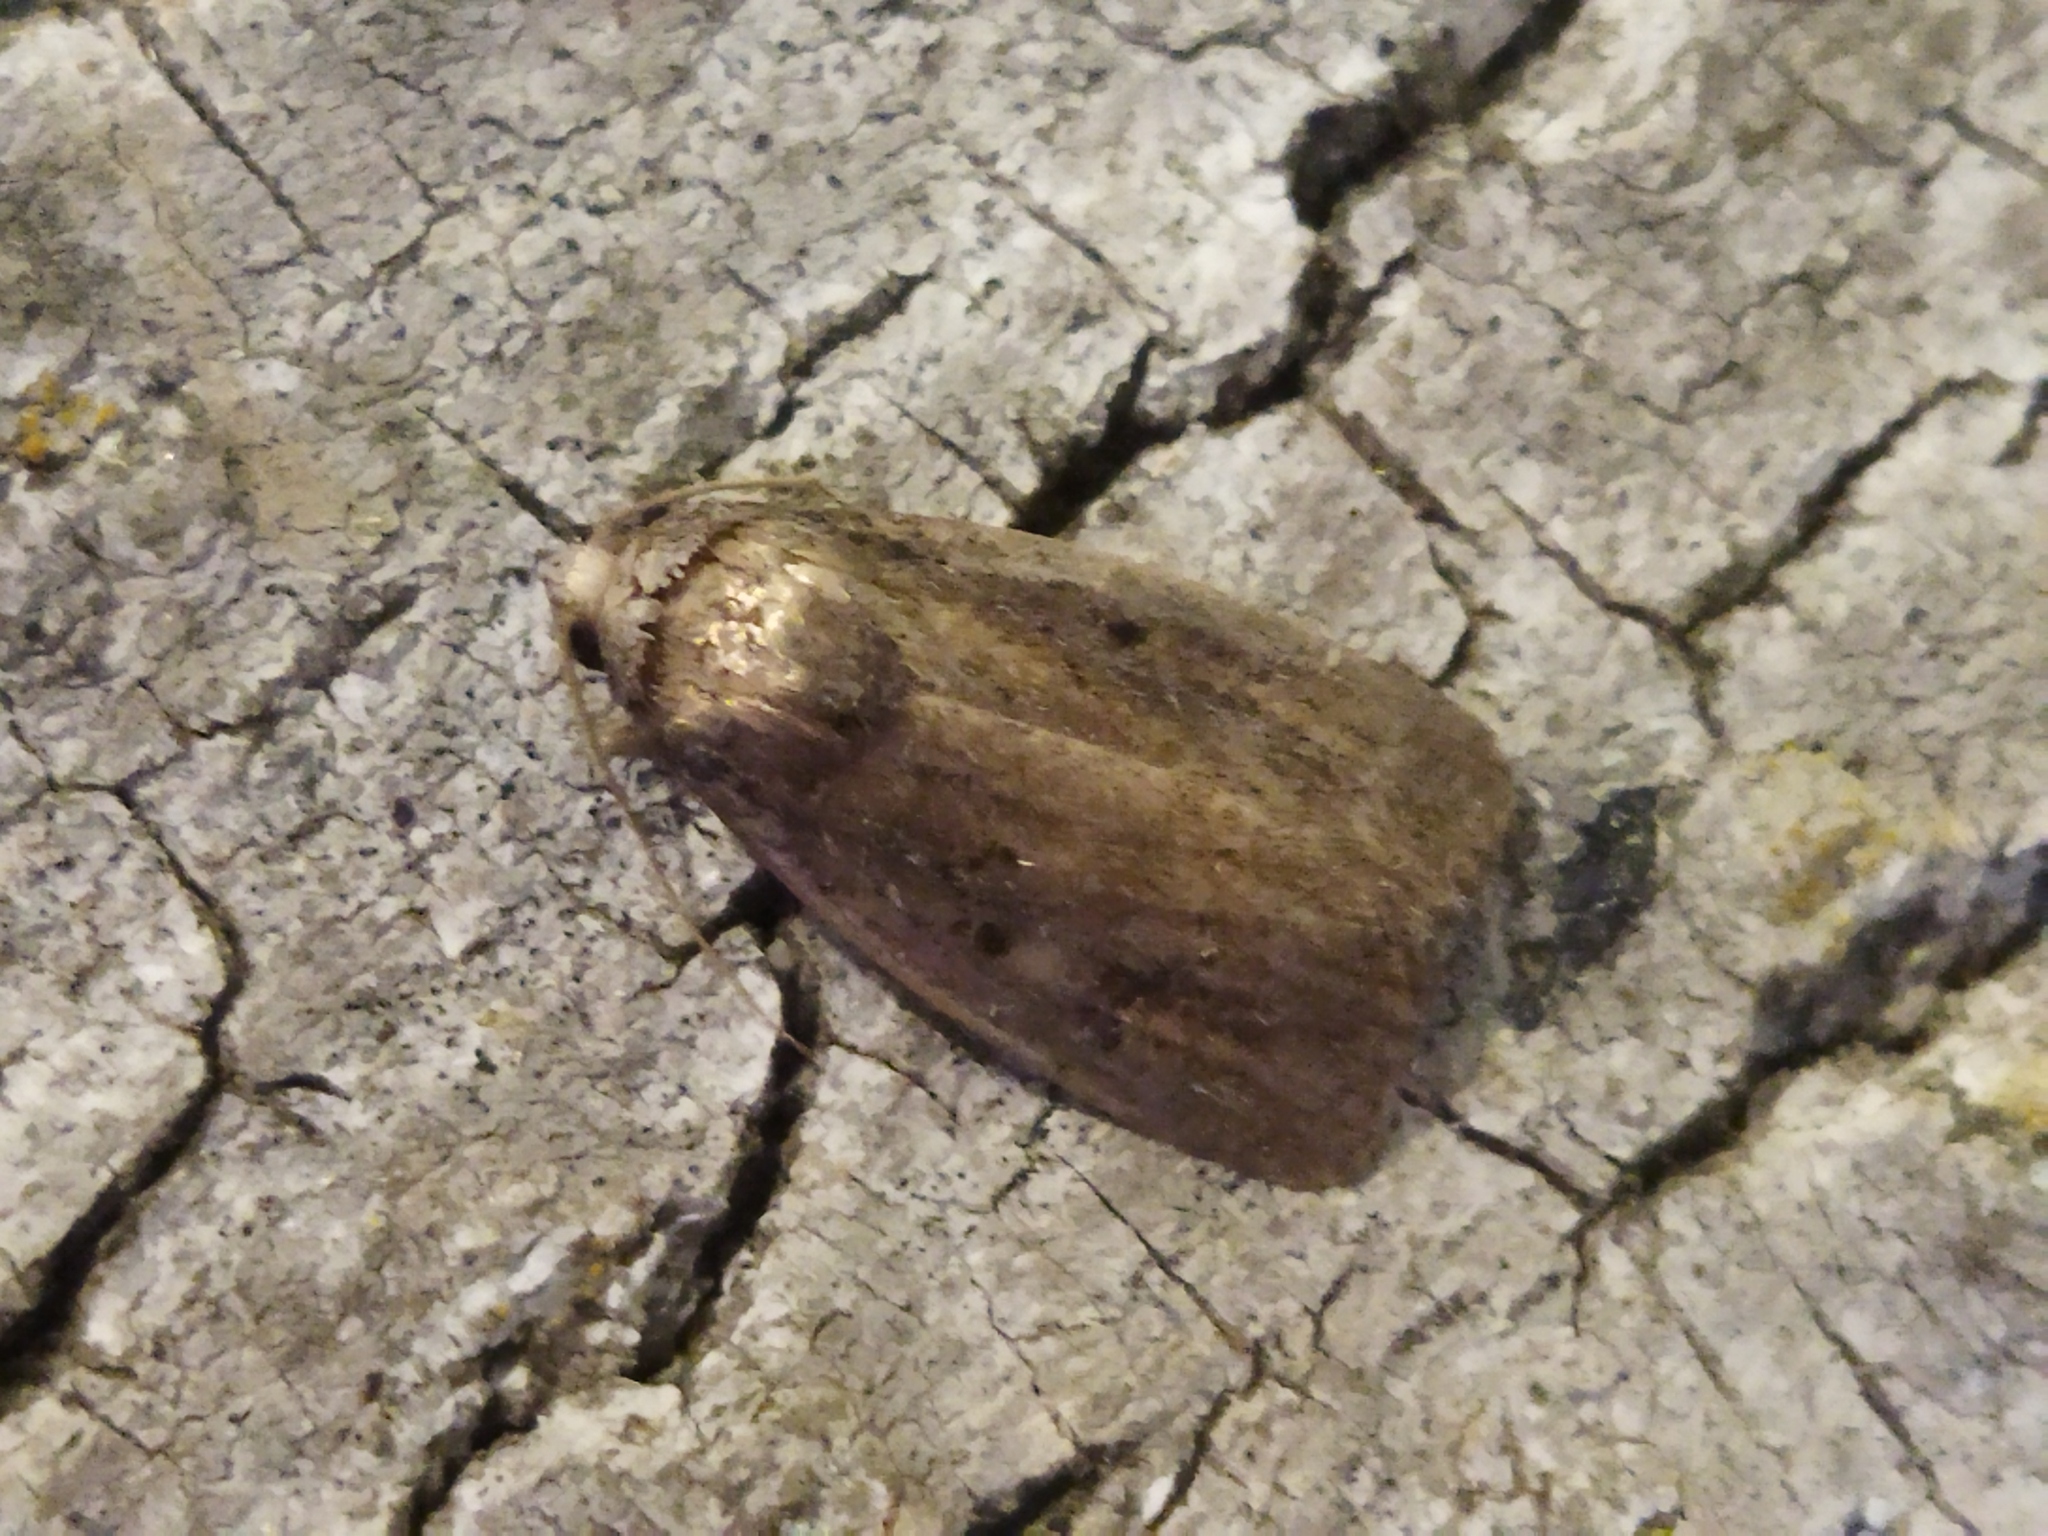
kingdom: Animalia
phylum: Arthropoda
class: Insecta
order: Lepidoptera
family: Noctuidae
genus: Athetis
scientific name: Athetis hospes
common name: Porter's rustic
